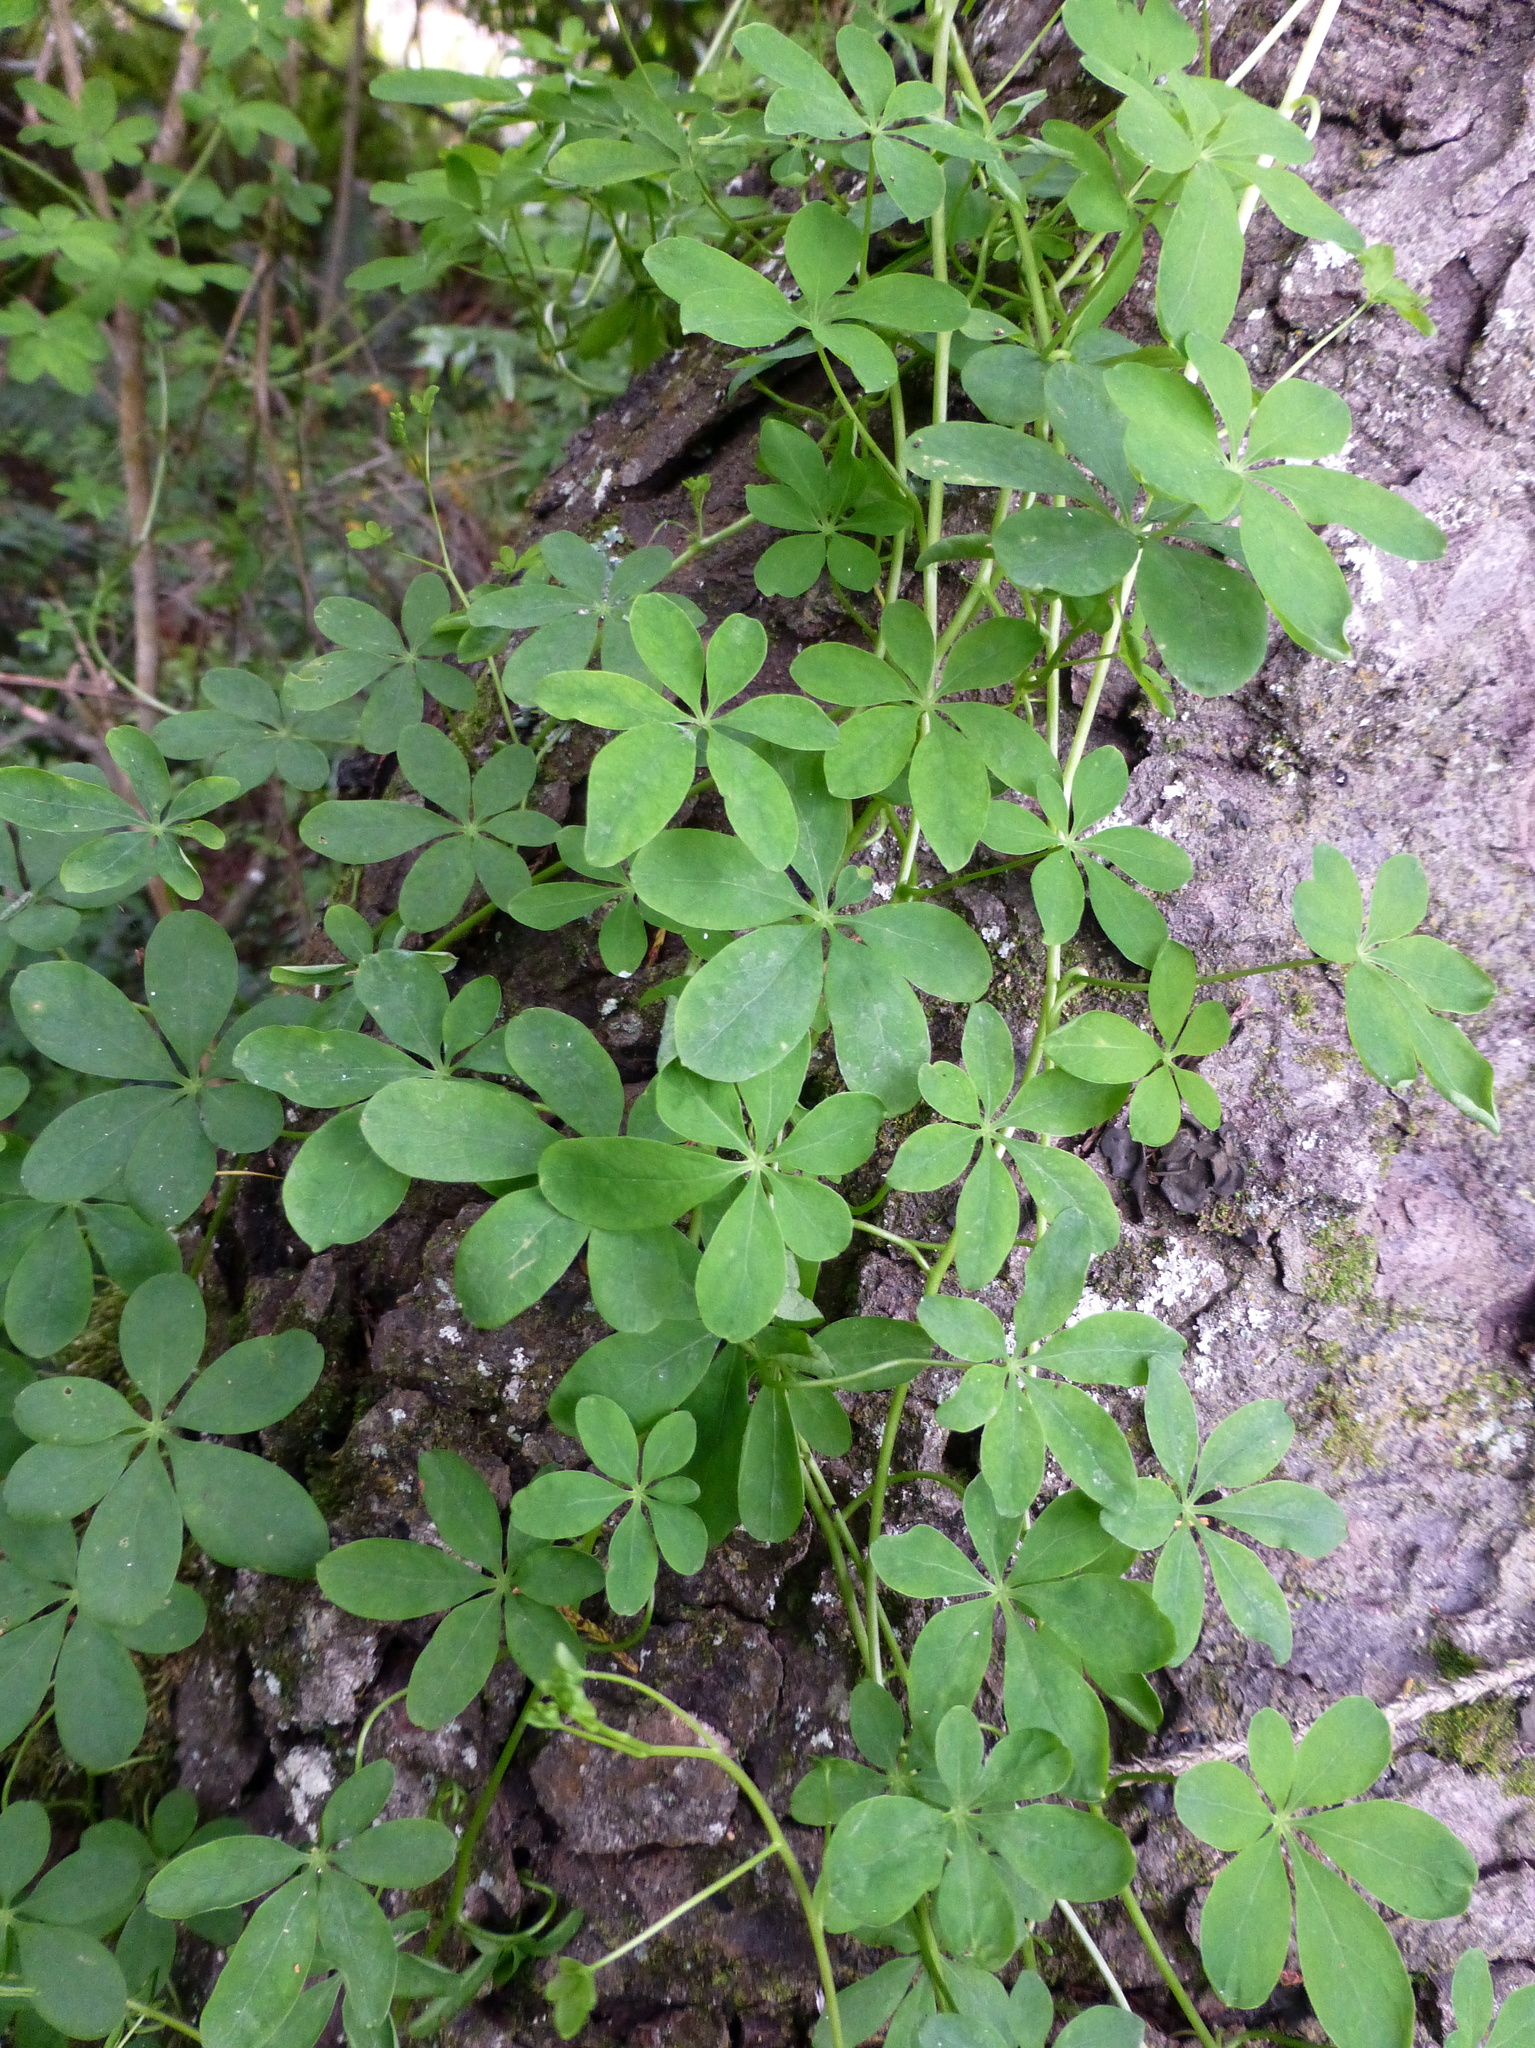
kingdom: Plantae
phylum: Tracheophyta
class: Magnoliopsida
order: Brassicales
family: Tropaeolaceae
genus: Tropaeolum
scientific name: Tropaeolum speciosum
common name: Flame nasturtium
